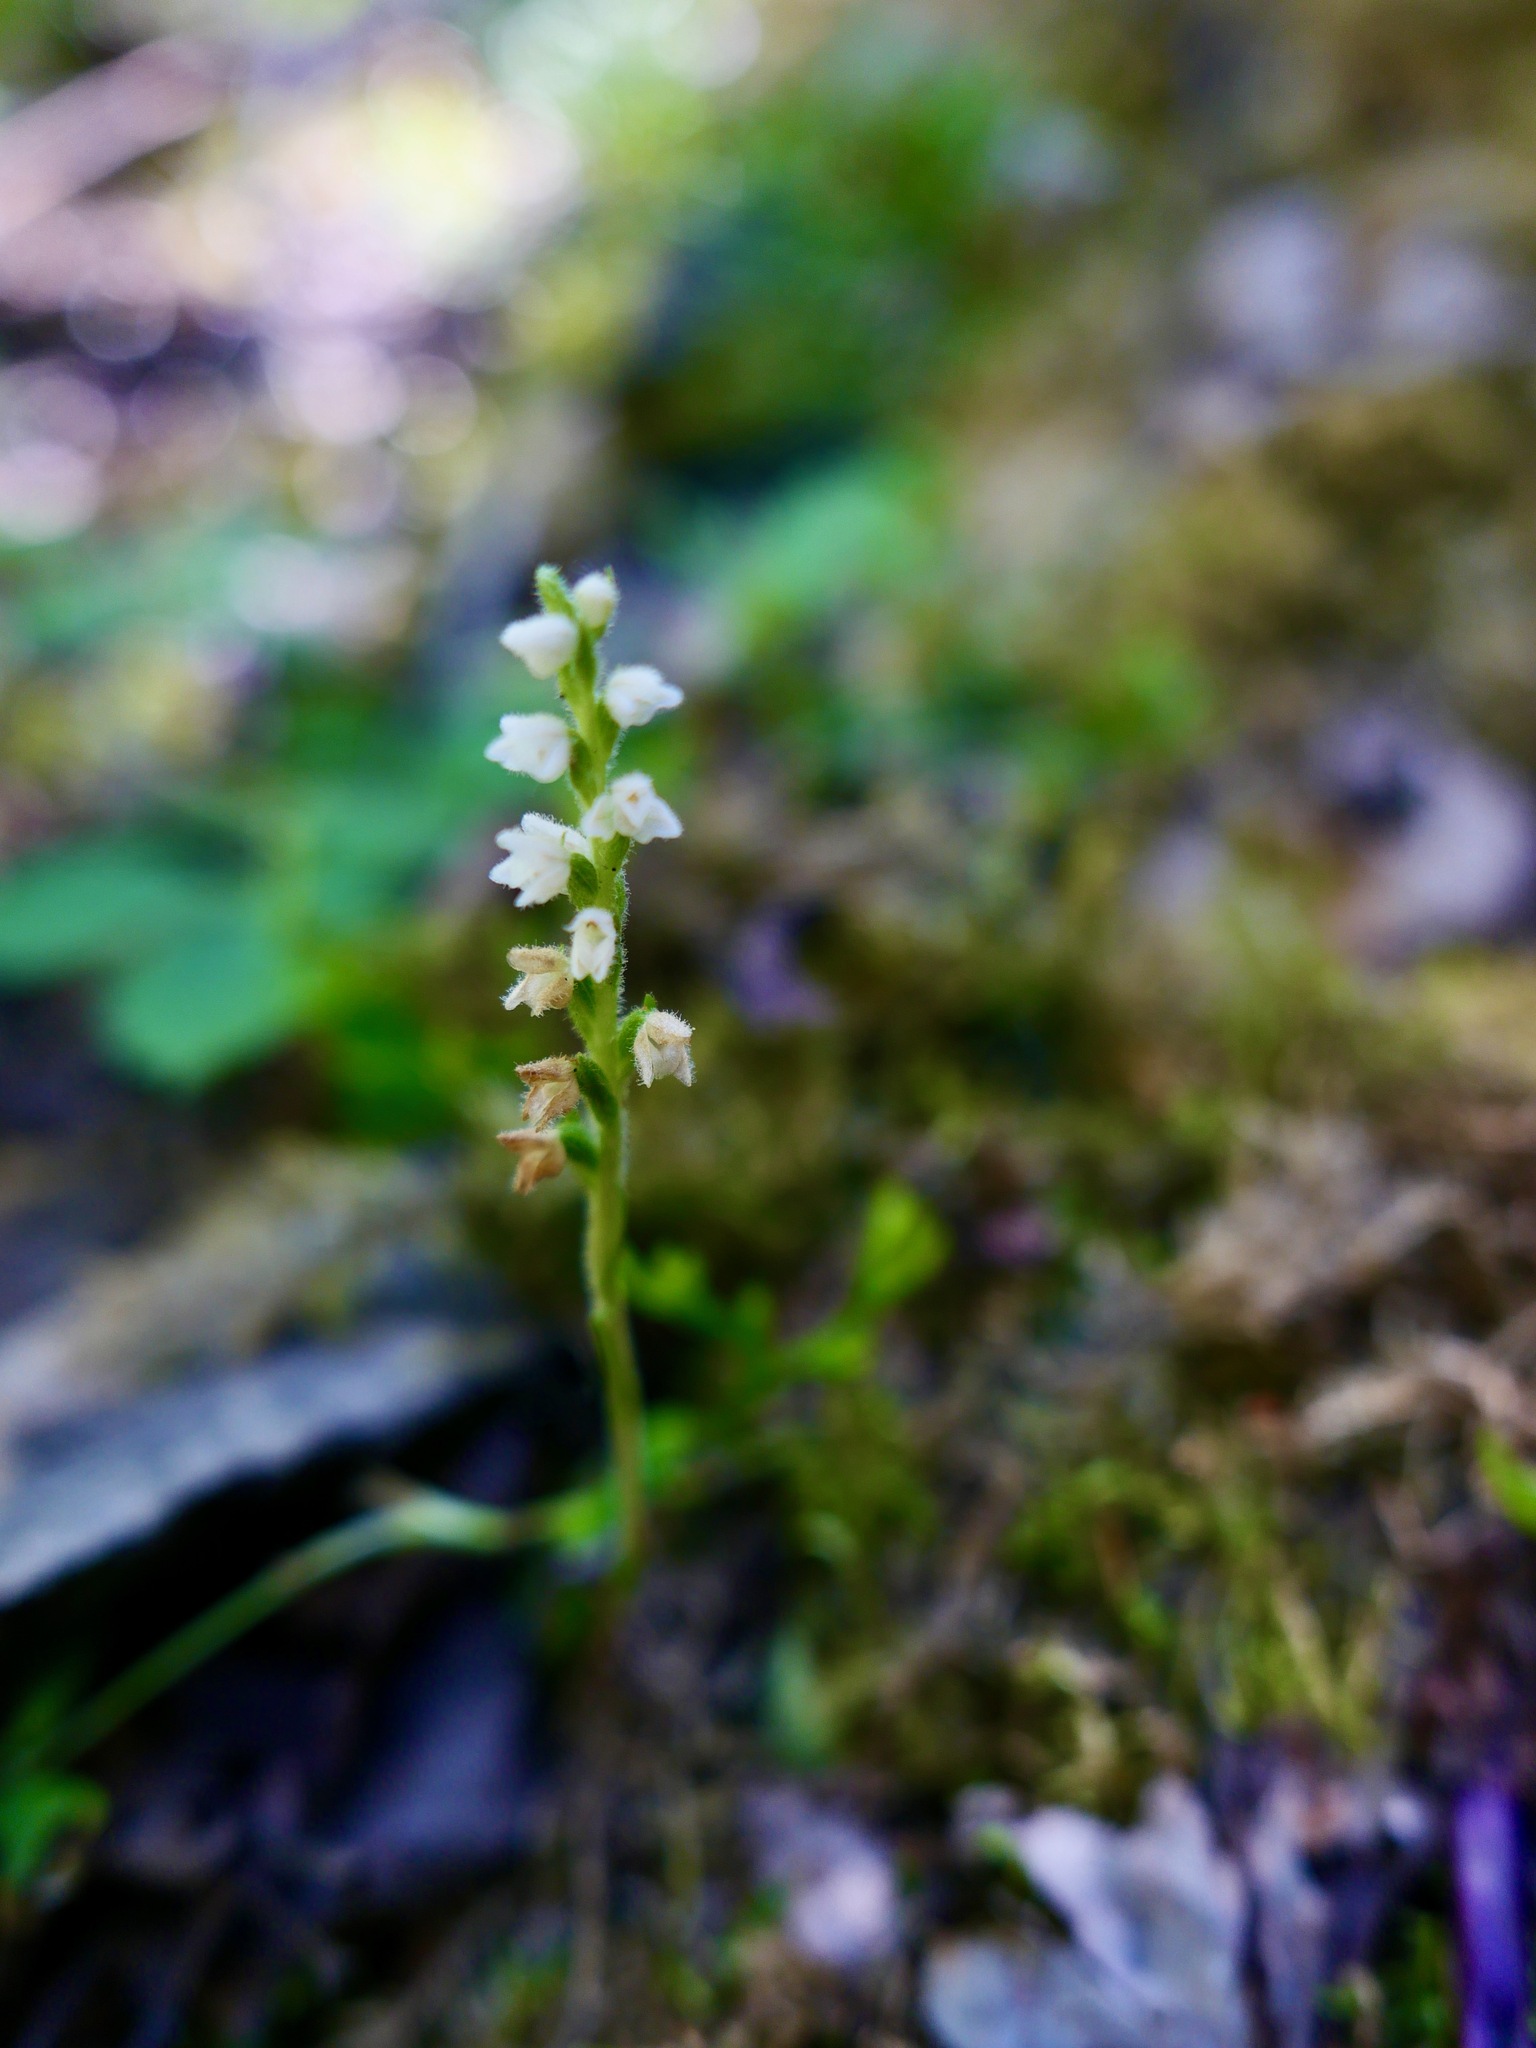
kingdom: Plantae
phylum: Tracheophyta
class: Liliopsida
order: Asparagales
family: Orchidaceae
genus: Goodyera
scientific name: Goodyera repens
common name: Creeping lady's-tresses
